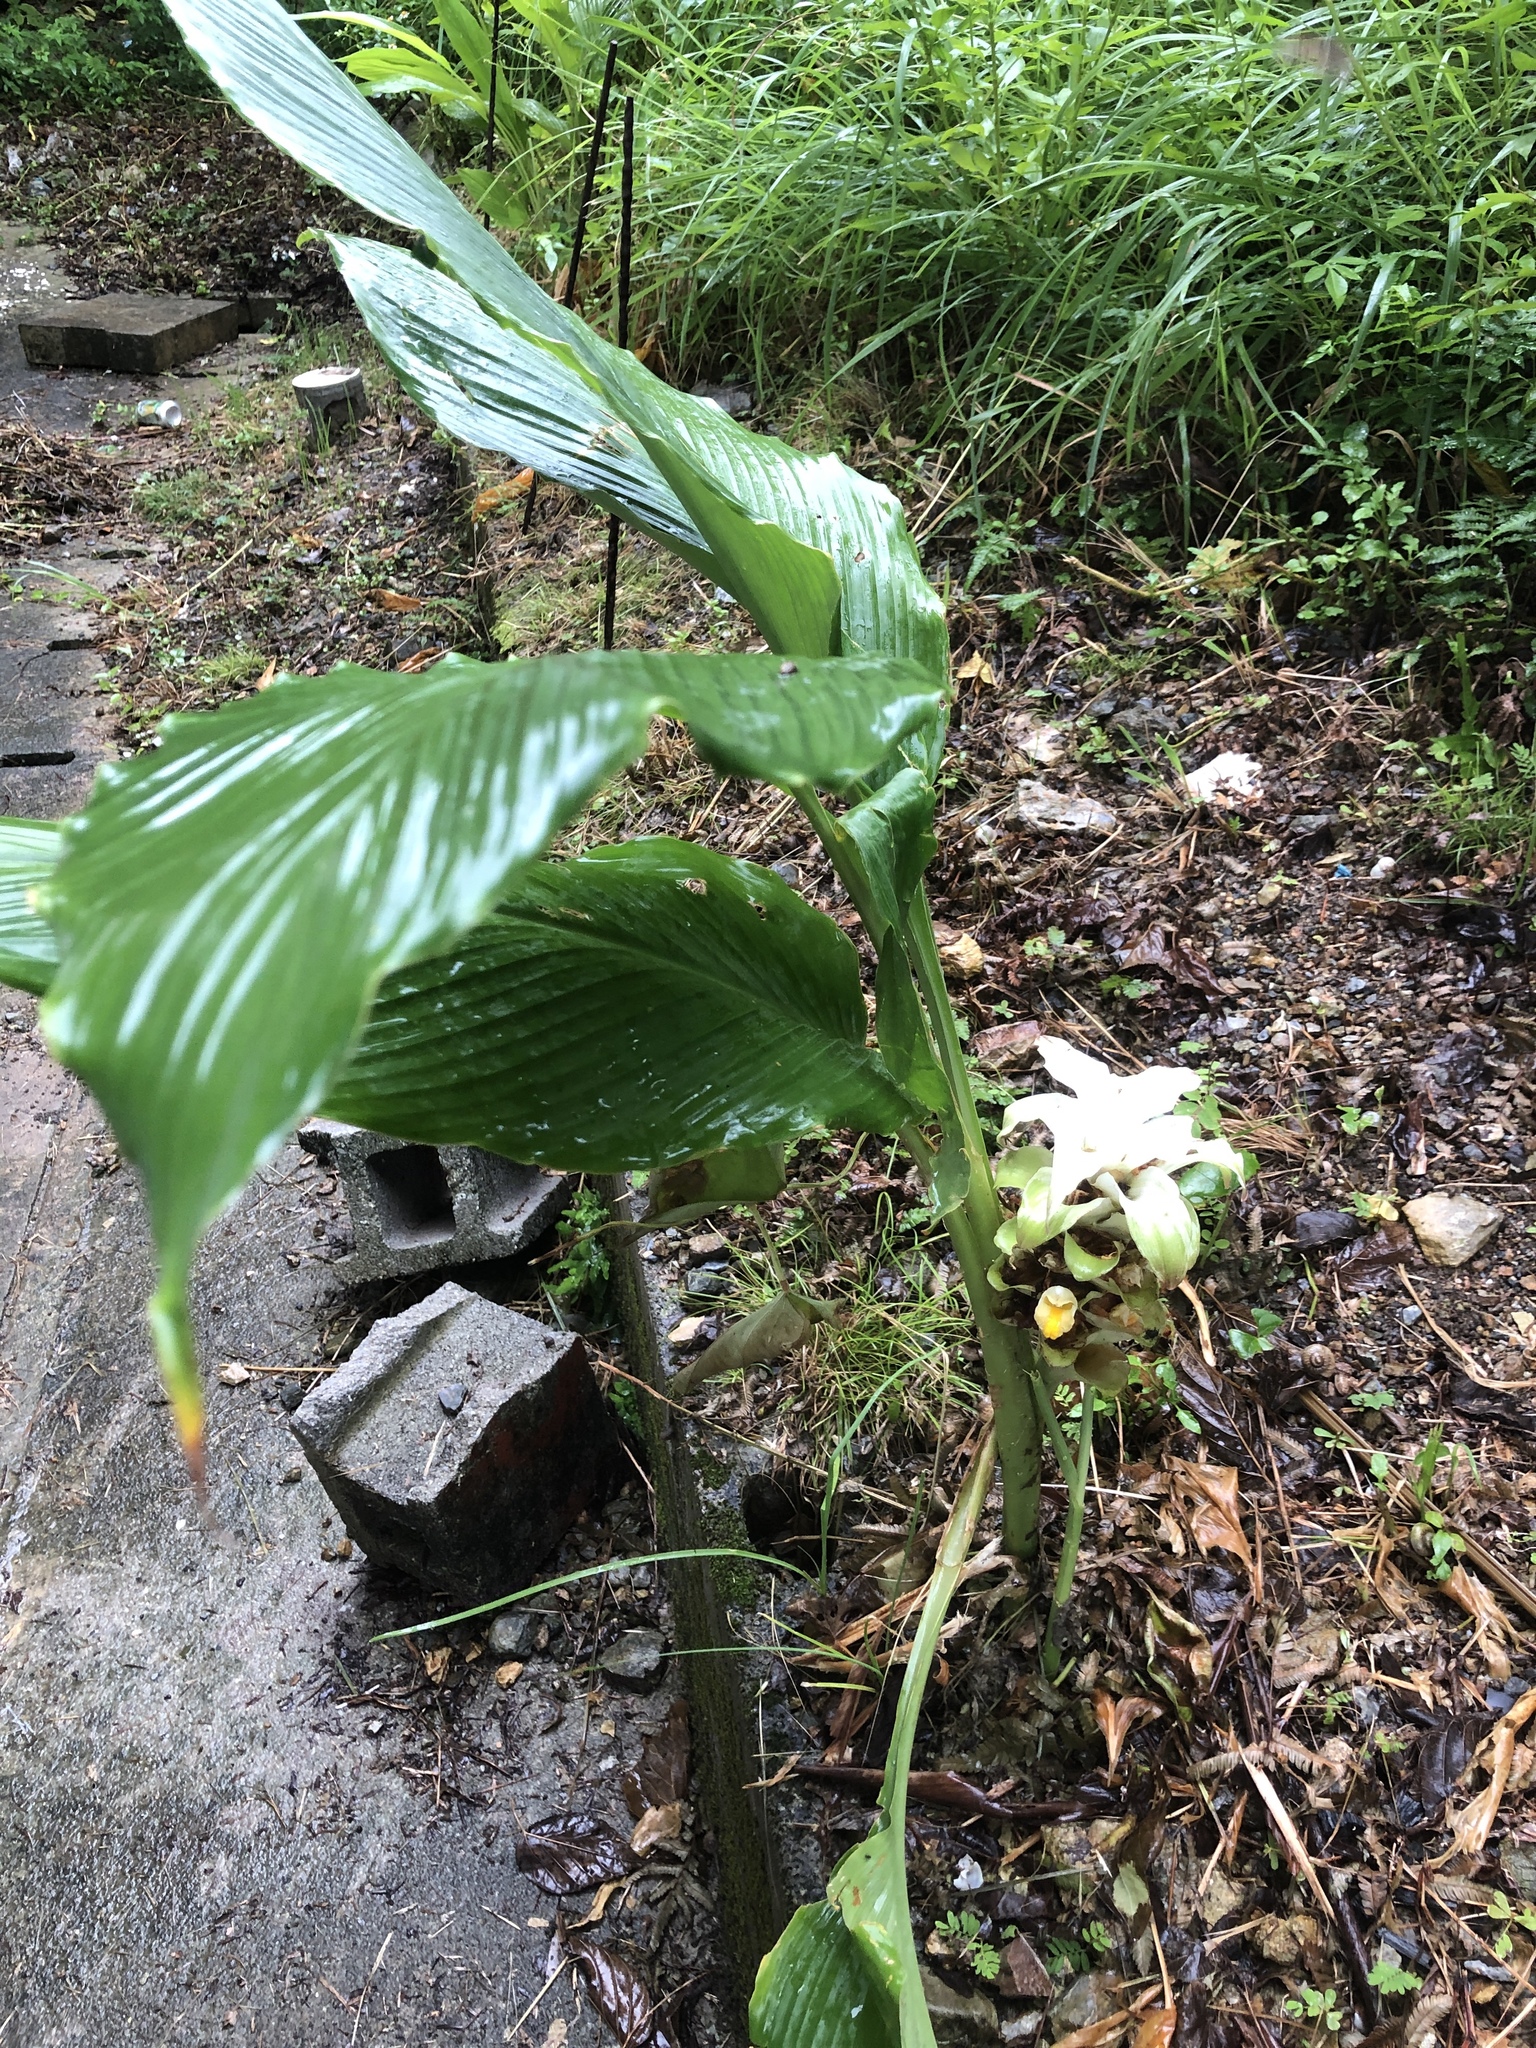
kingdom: Plantae
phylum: Tracheophyta
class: Liliopsida
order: Zingiberales
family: Zingiberaceae
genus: Curcuma
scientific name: Curcuma longa
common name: Turmeric
